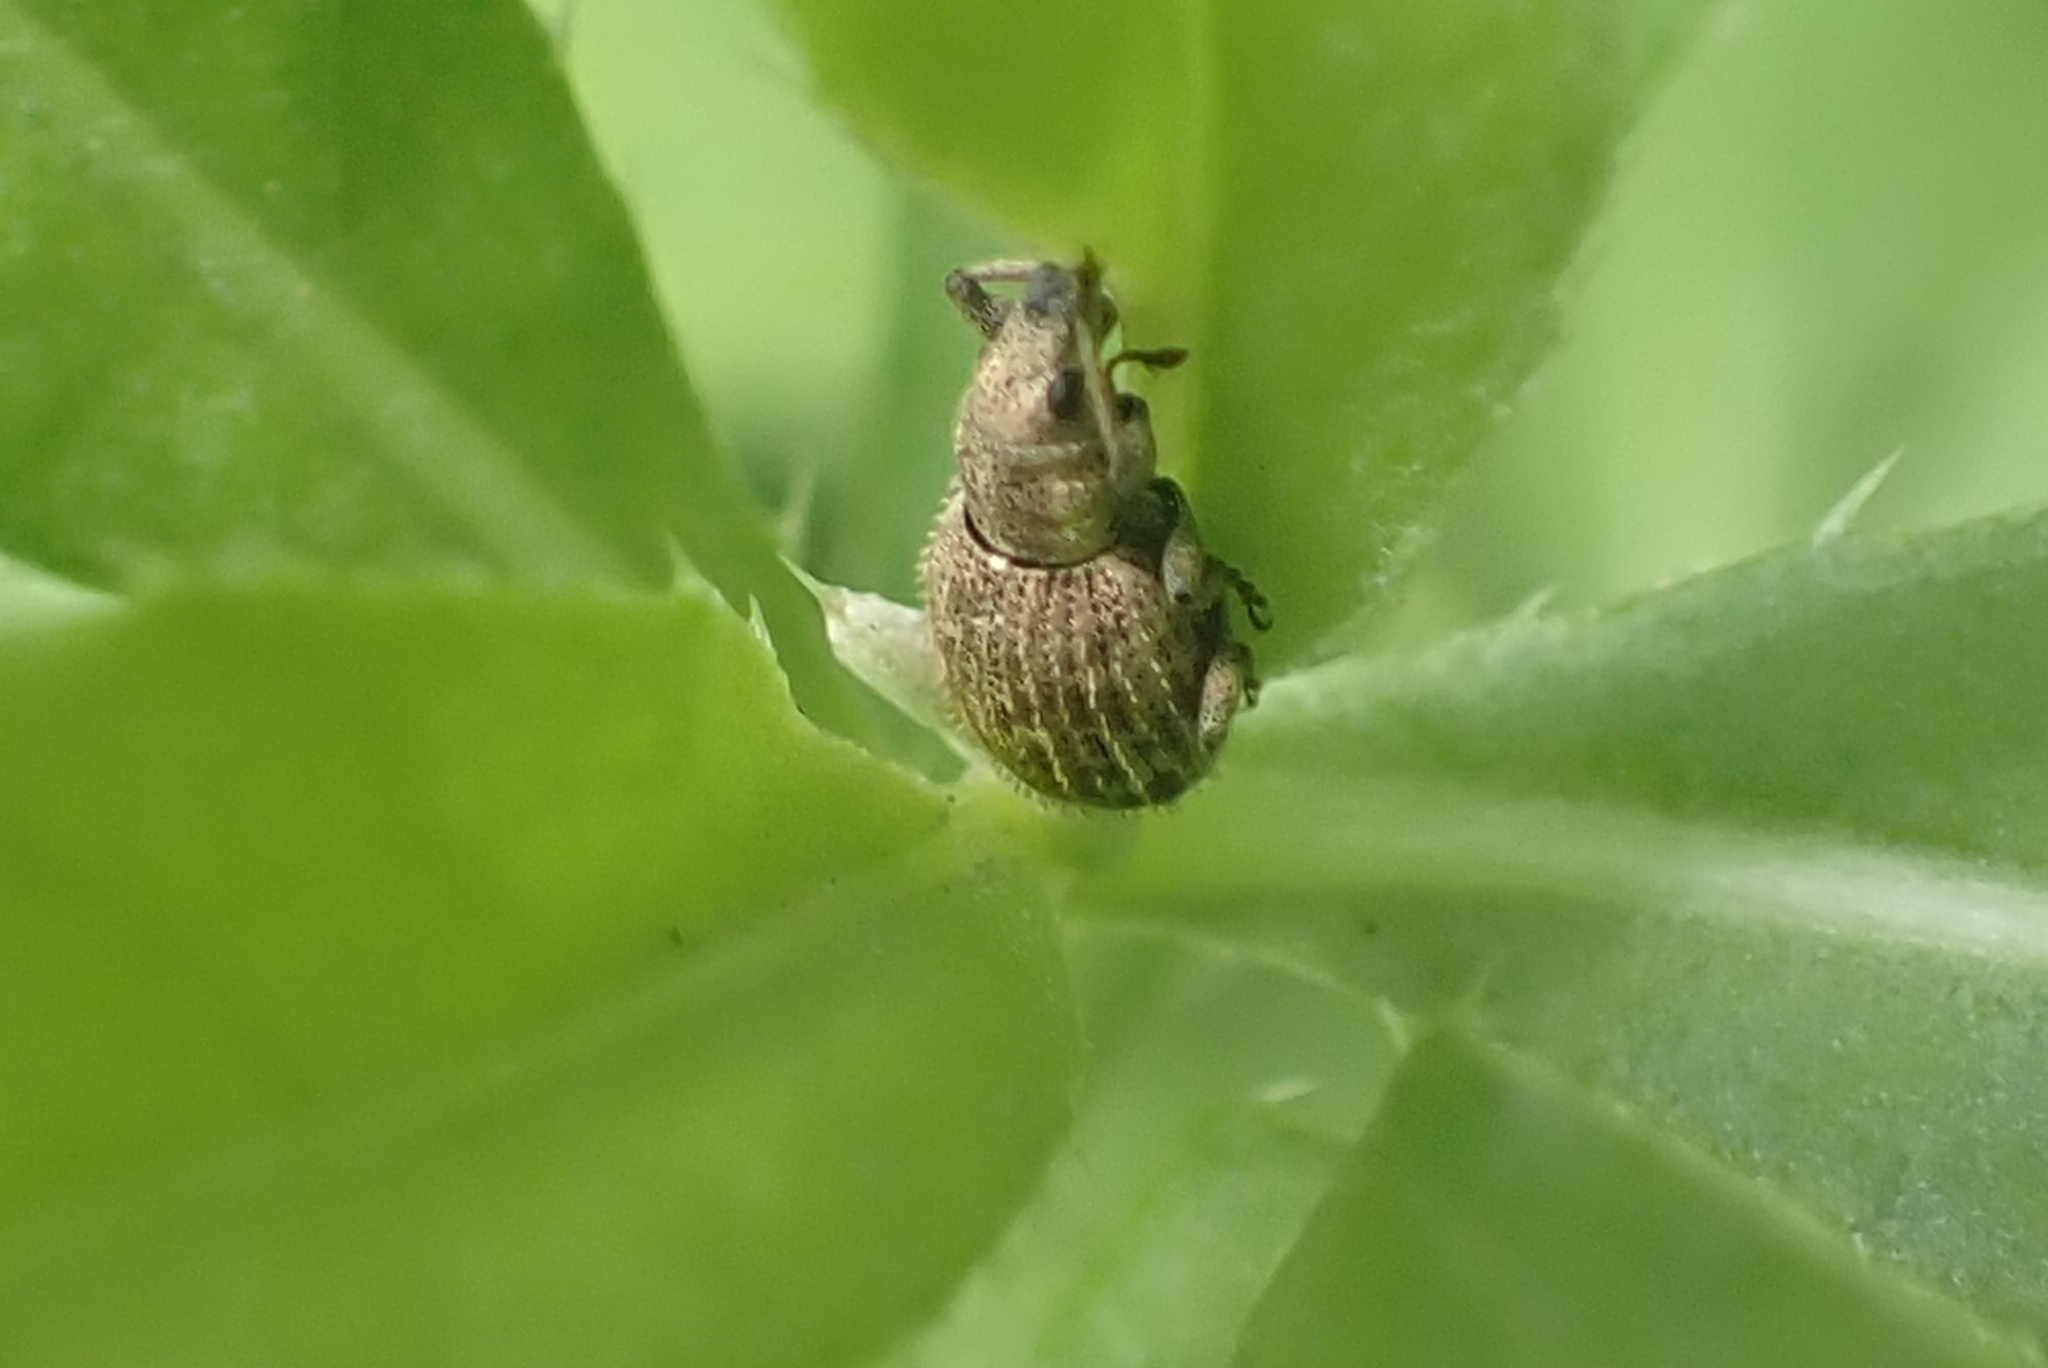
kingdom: Animalia
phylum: Arthropoda
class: Insecta
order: Coleoptera
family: Curculionidae
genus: Sciaphilus
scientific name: Sciaphilus asperatus
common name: Weevil
